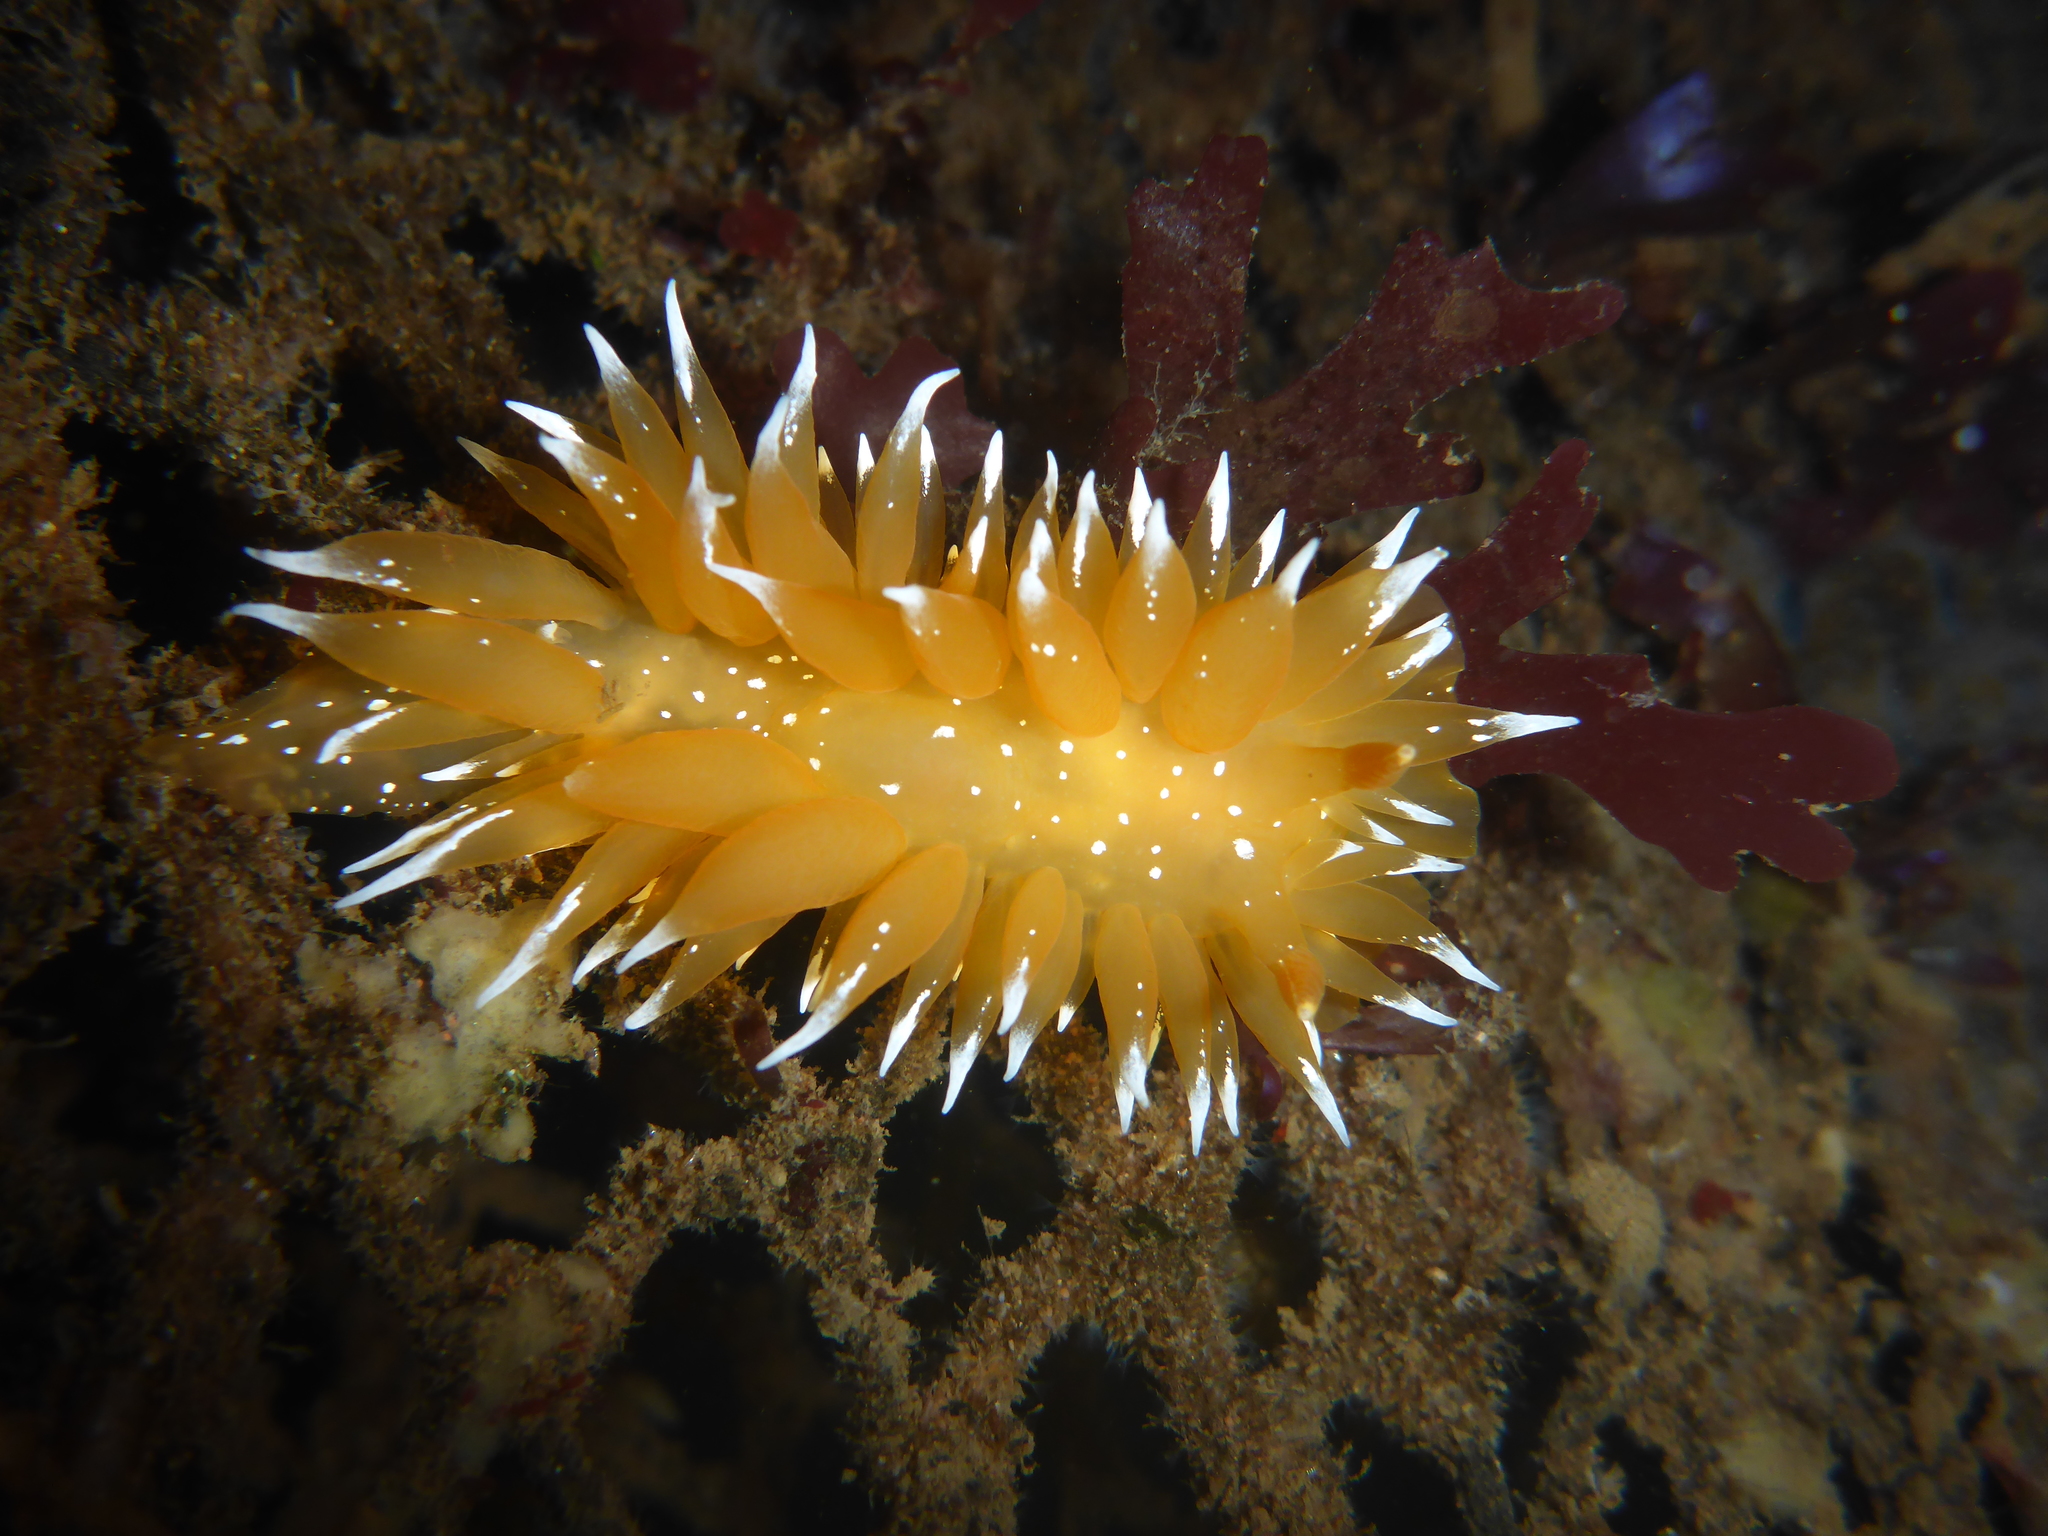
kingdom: Animalia
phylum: Mollusca
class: Gastropoda
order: Nudibranchia
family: Dironidae
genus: Dirona
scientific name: Dirona pellucida
